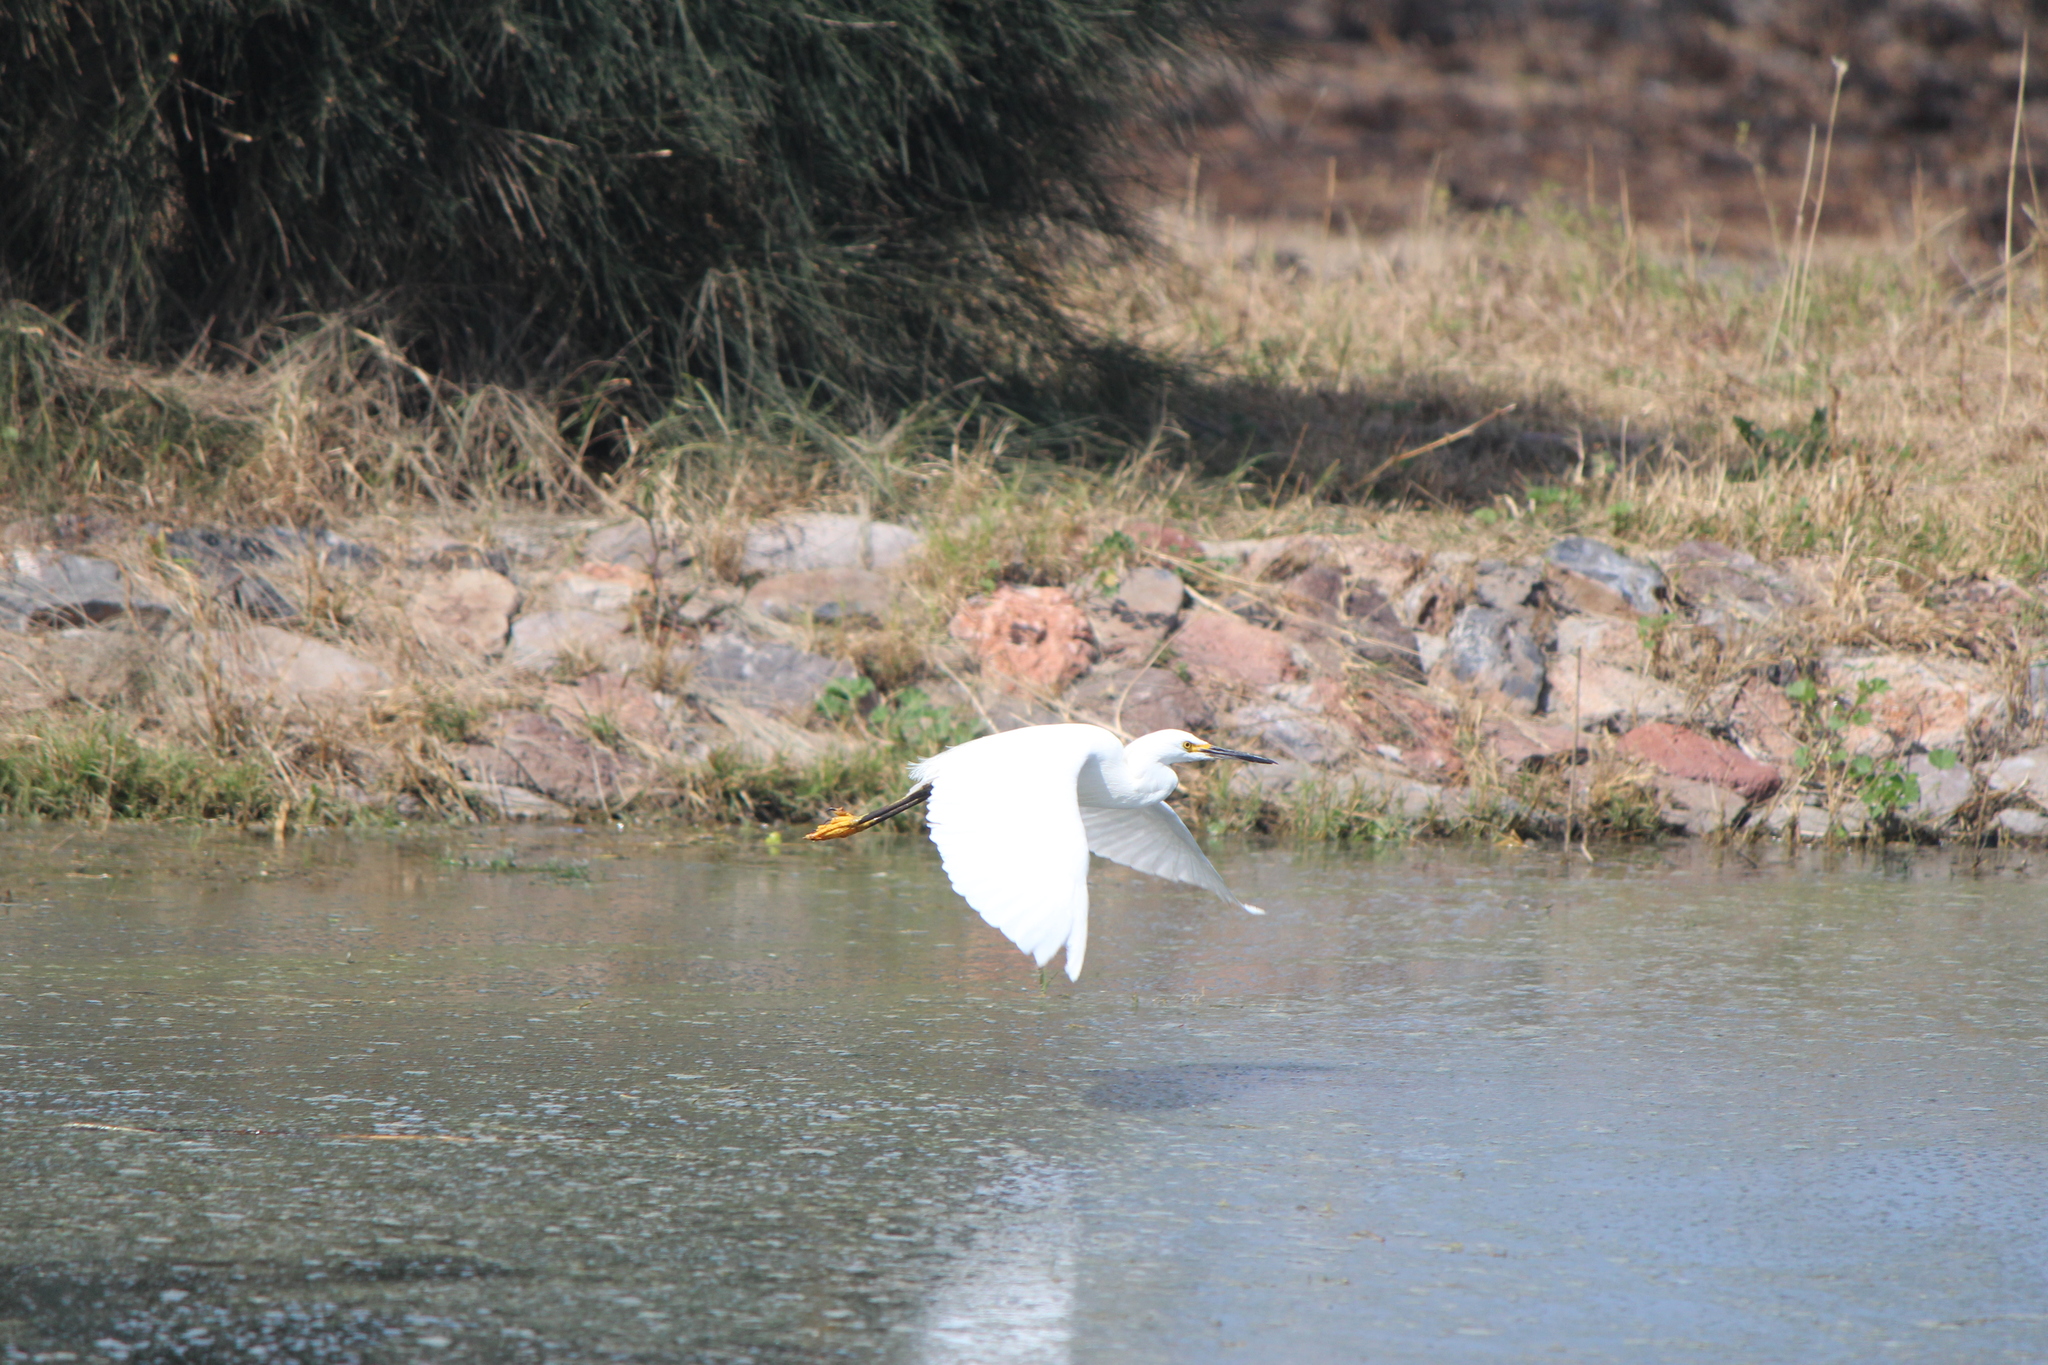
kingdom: Animalia
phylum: Chordata
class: Aves
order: Pelecaniformes
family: Ardeidae
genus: Egretta
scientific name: Egretta thula
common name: Snowy egret
